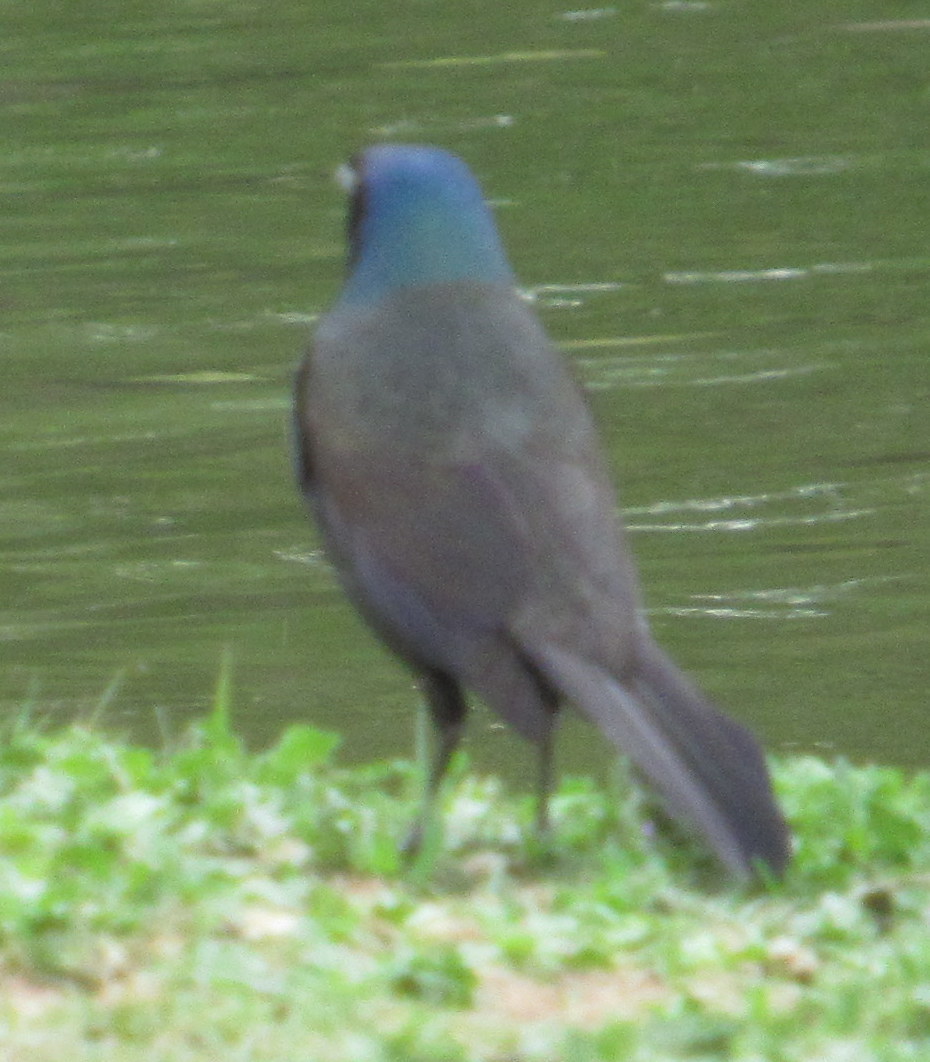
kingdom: Animalia
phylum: Chordata
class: Aves
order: Passeriformes
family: Icteridae
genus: Quiscalus
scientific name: Quiscalus quiscula
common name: Common grackle
